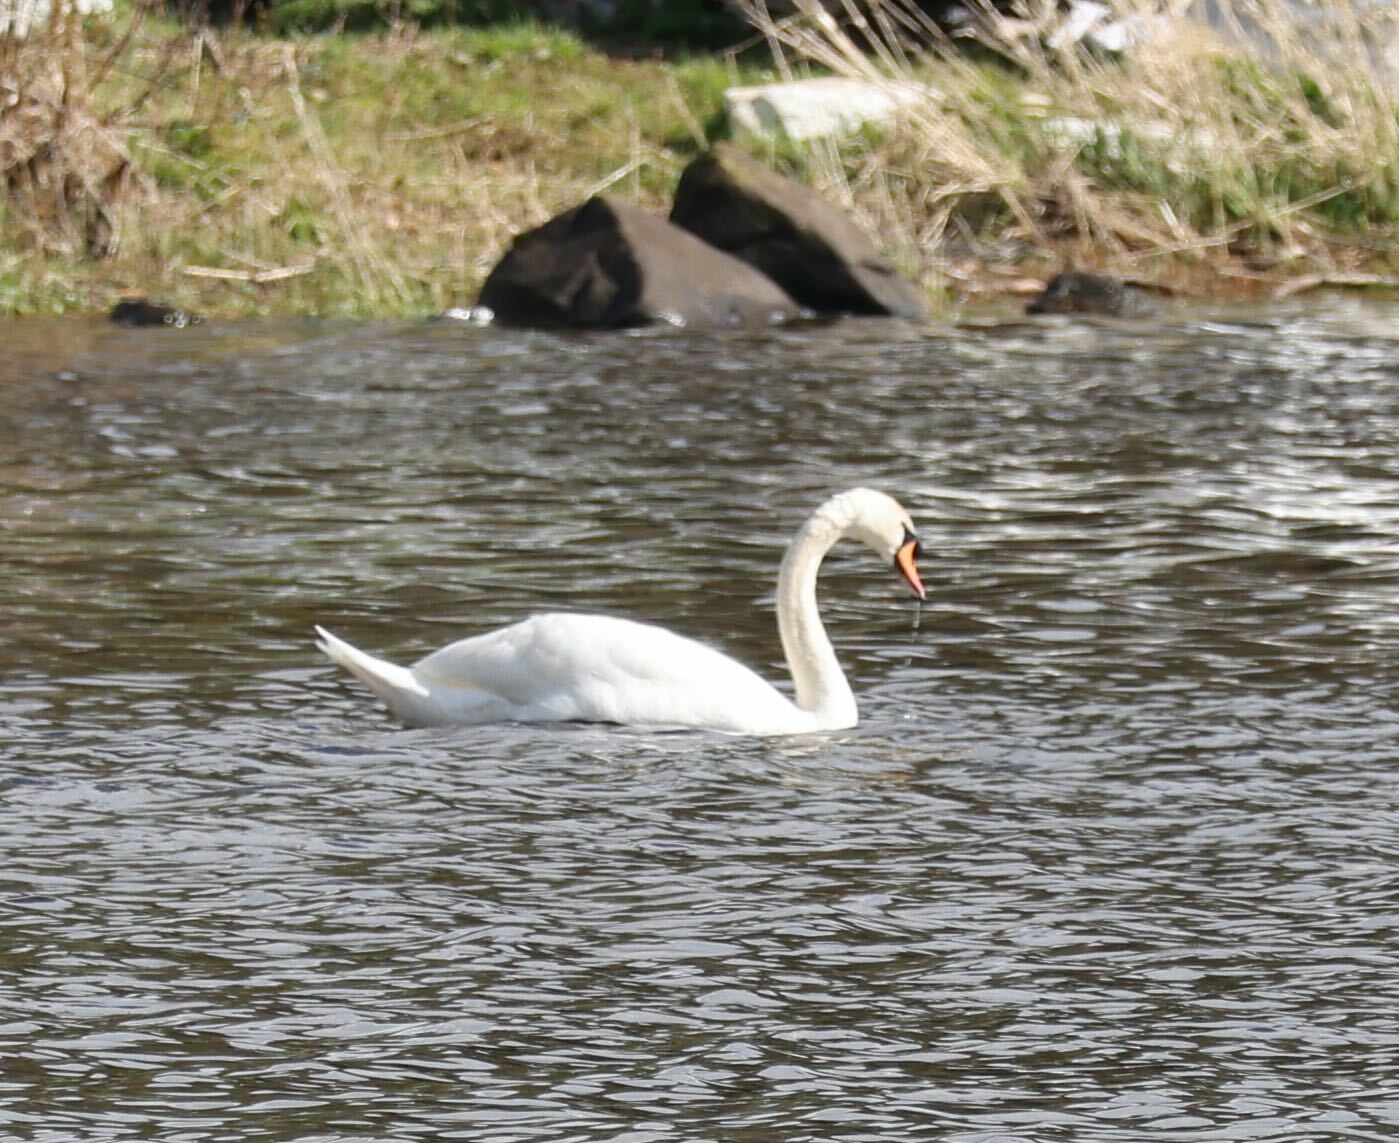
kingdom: Animalia
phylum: Chordata
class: Aves
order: Anseriformes
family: Anatidae
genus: Cygnus
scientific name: Cygnus olor
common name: Mute swan
